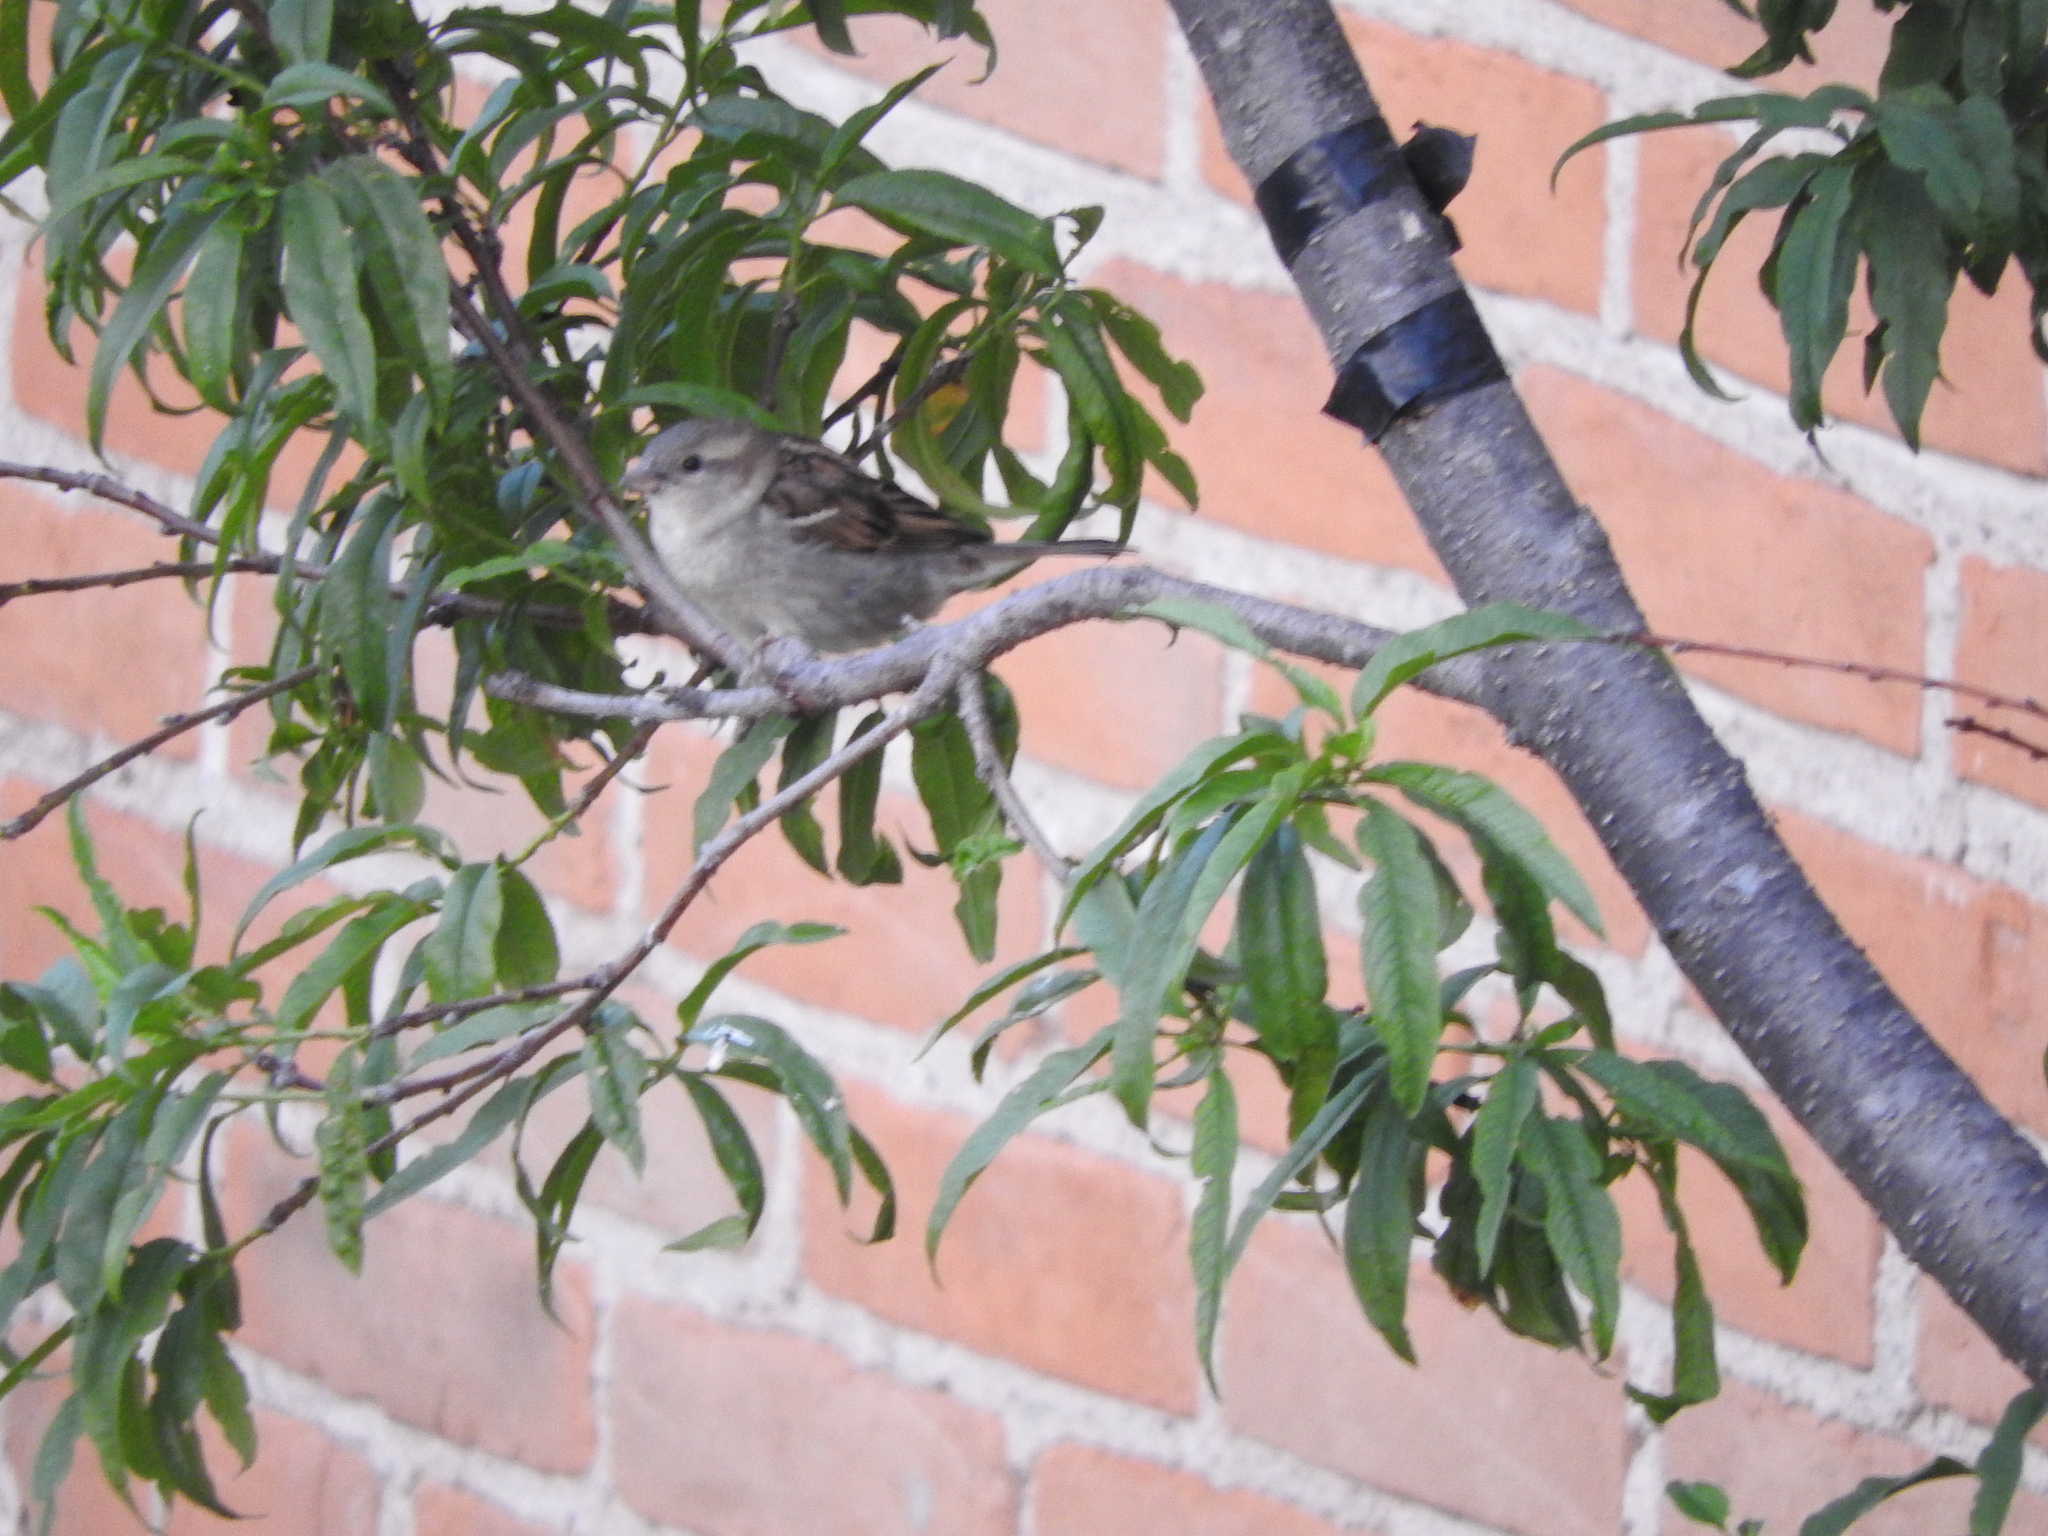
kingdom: Animalia
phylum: Chordata
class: Aves
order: Passeriformes
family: Passeridae
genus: Passer
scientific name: Passer domesticus
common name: House sparrow
